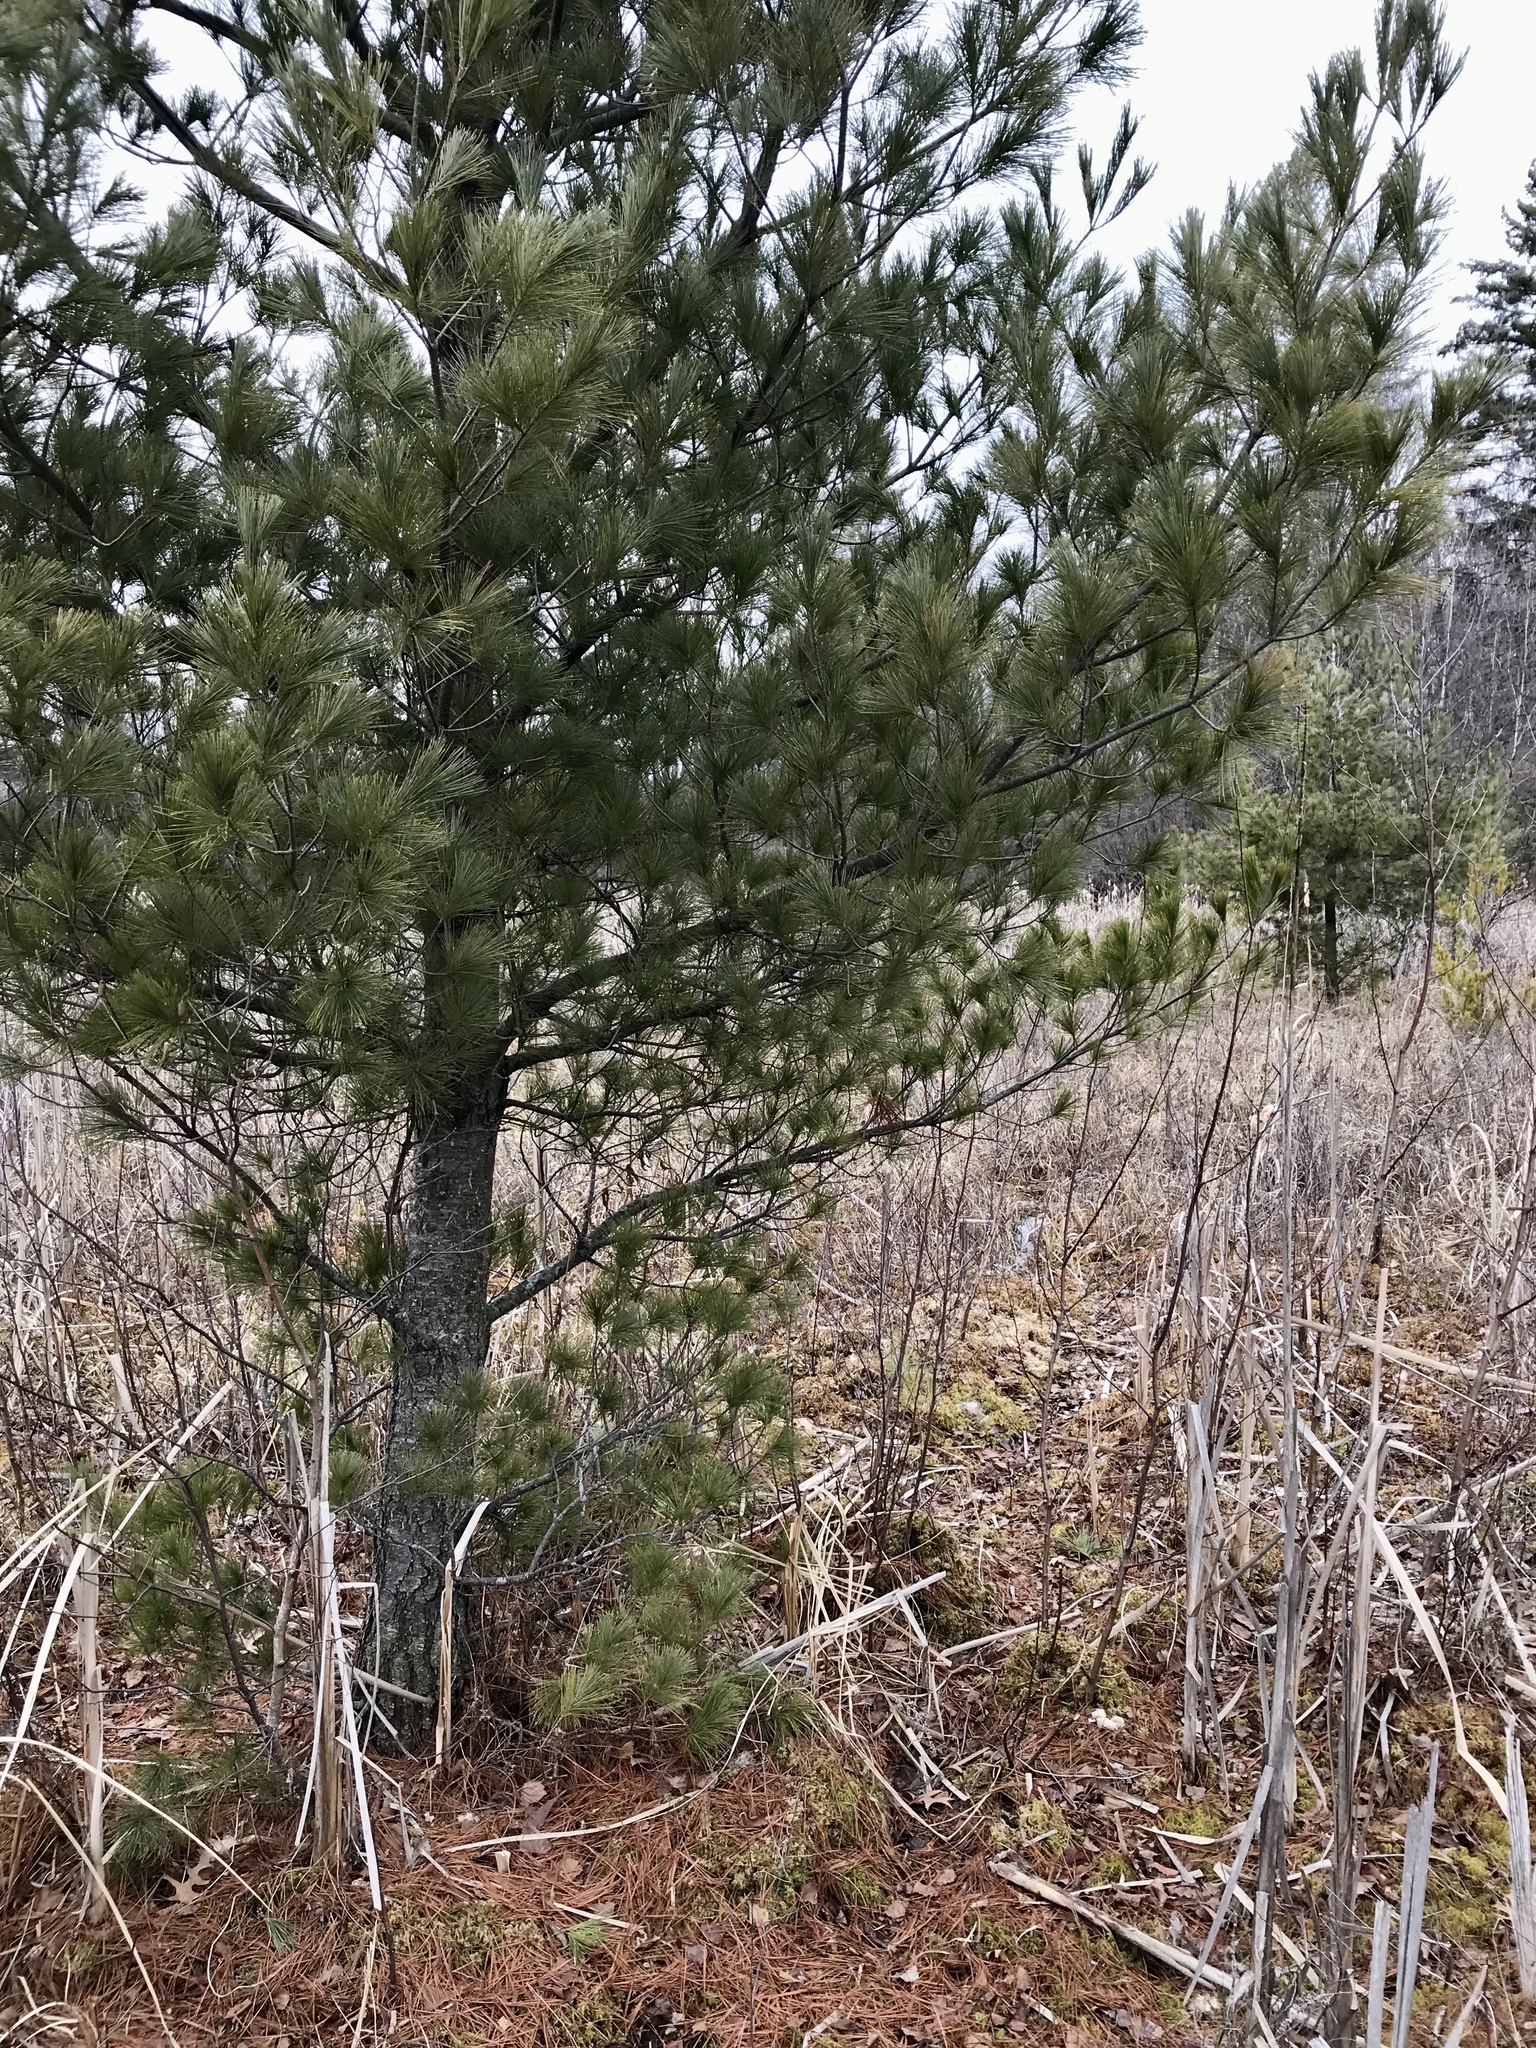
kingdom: Plantae
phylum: Tracheophyta
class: Pinopsida
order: Pinales
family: Pinaceae
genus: Pinus
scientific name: Pinus strobus
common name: Weymouth pine
